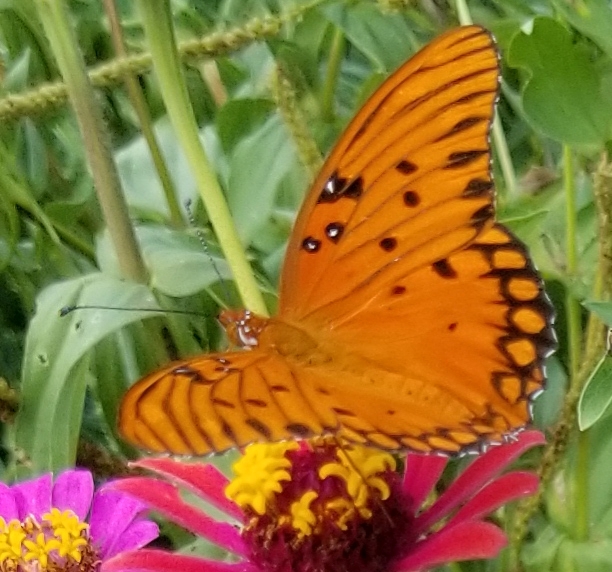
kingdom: Animalia
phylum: Arthropoda
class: Insecta
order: Lepidoptera
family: Nymphalidae
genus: Dione
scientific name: Dione vanillae
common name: Gulf fritillary
